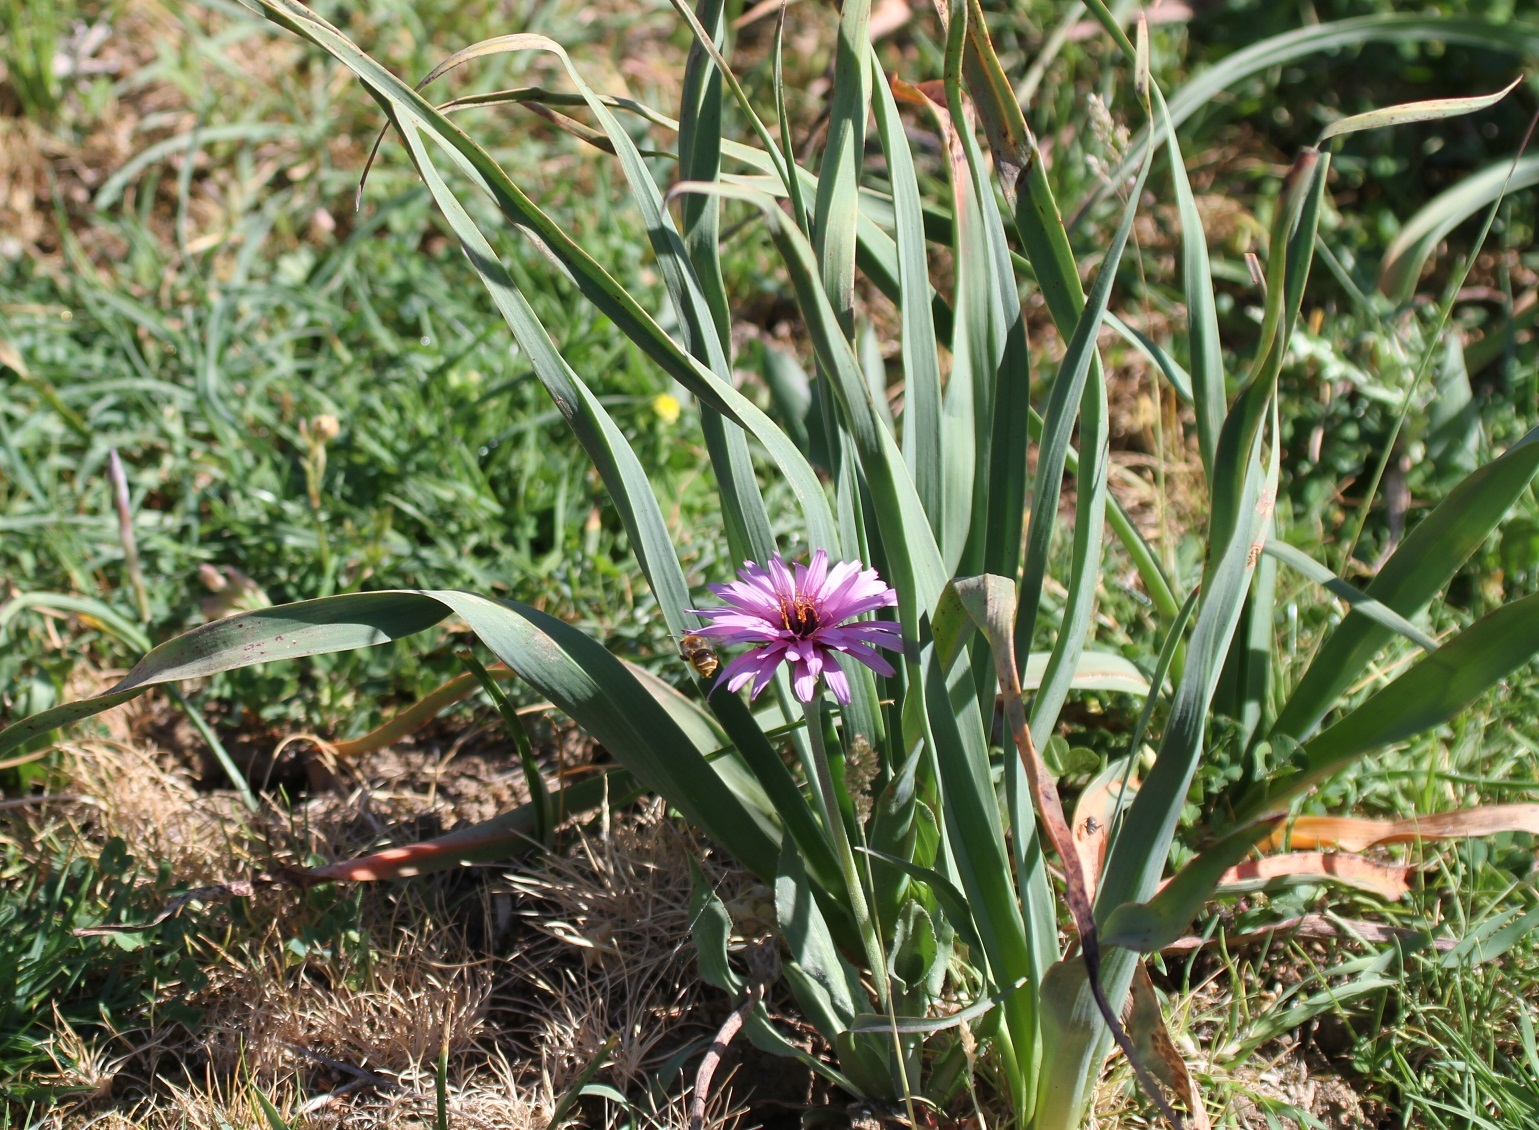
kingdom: Plantae
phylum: Tracheophyta
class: Magnoliopsida
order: Asterales
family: Asteraceae
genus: Pseudopodospermum
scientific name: Pseudopodospermum undulatum
